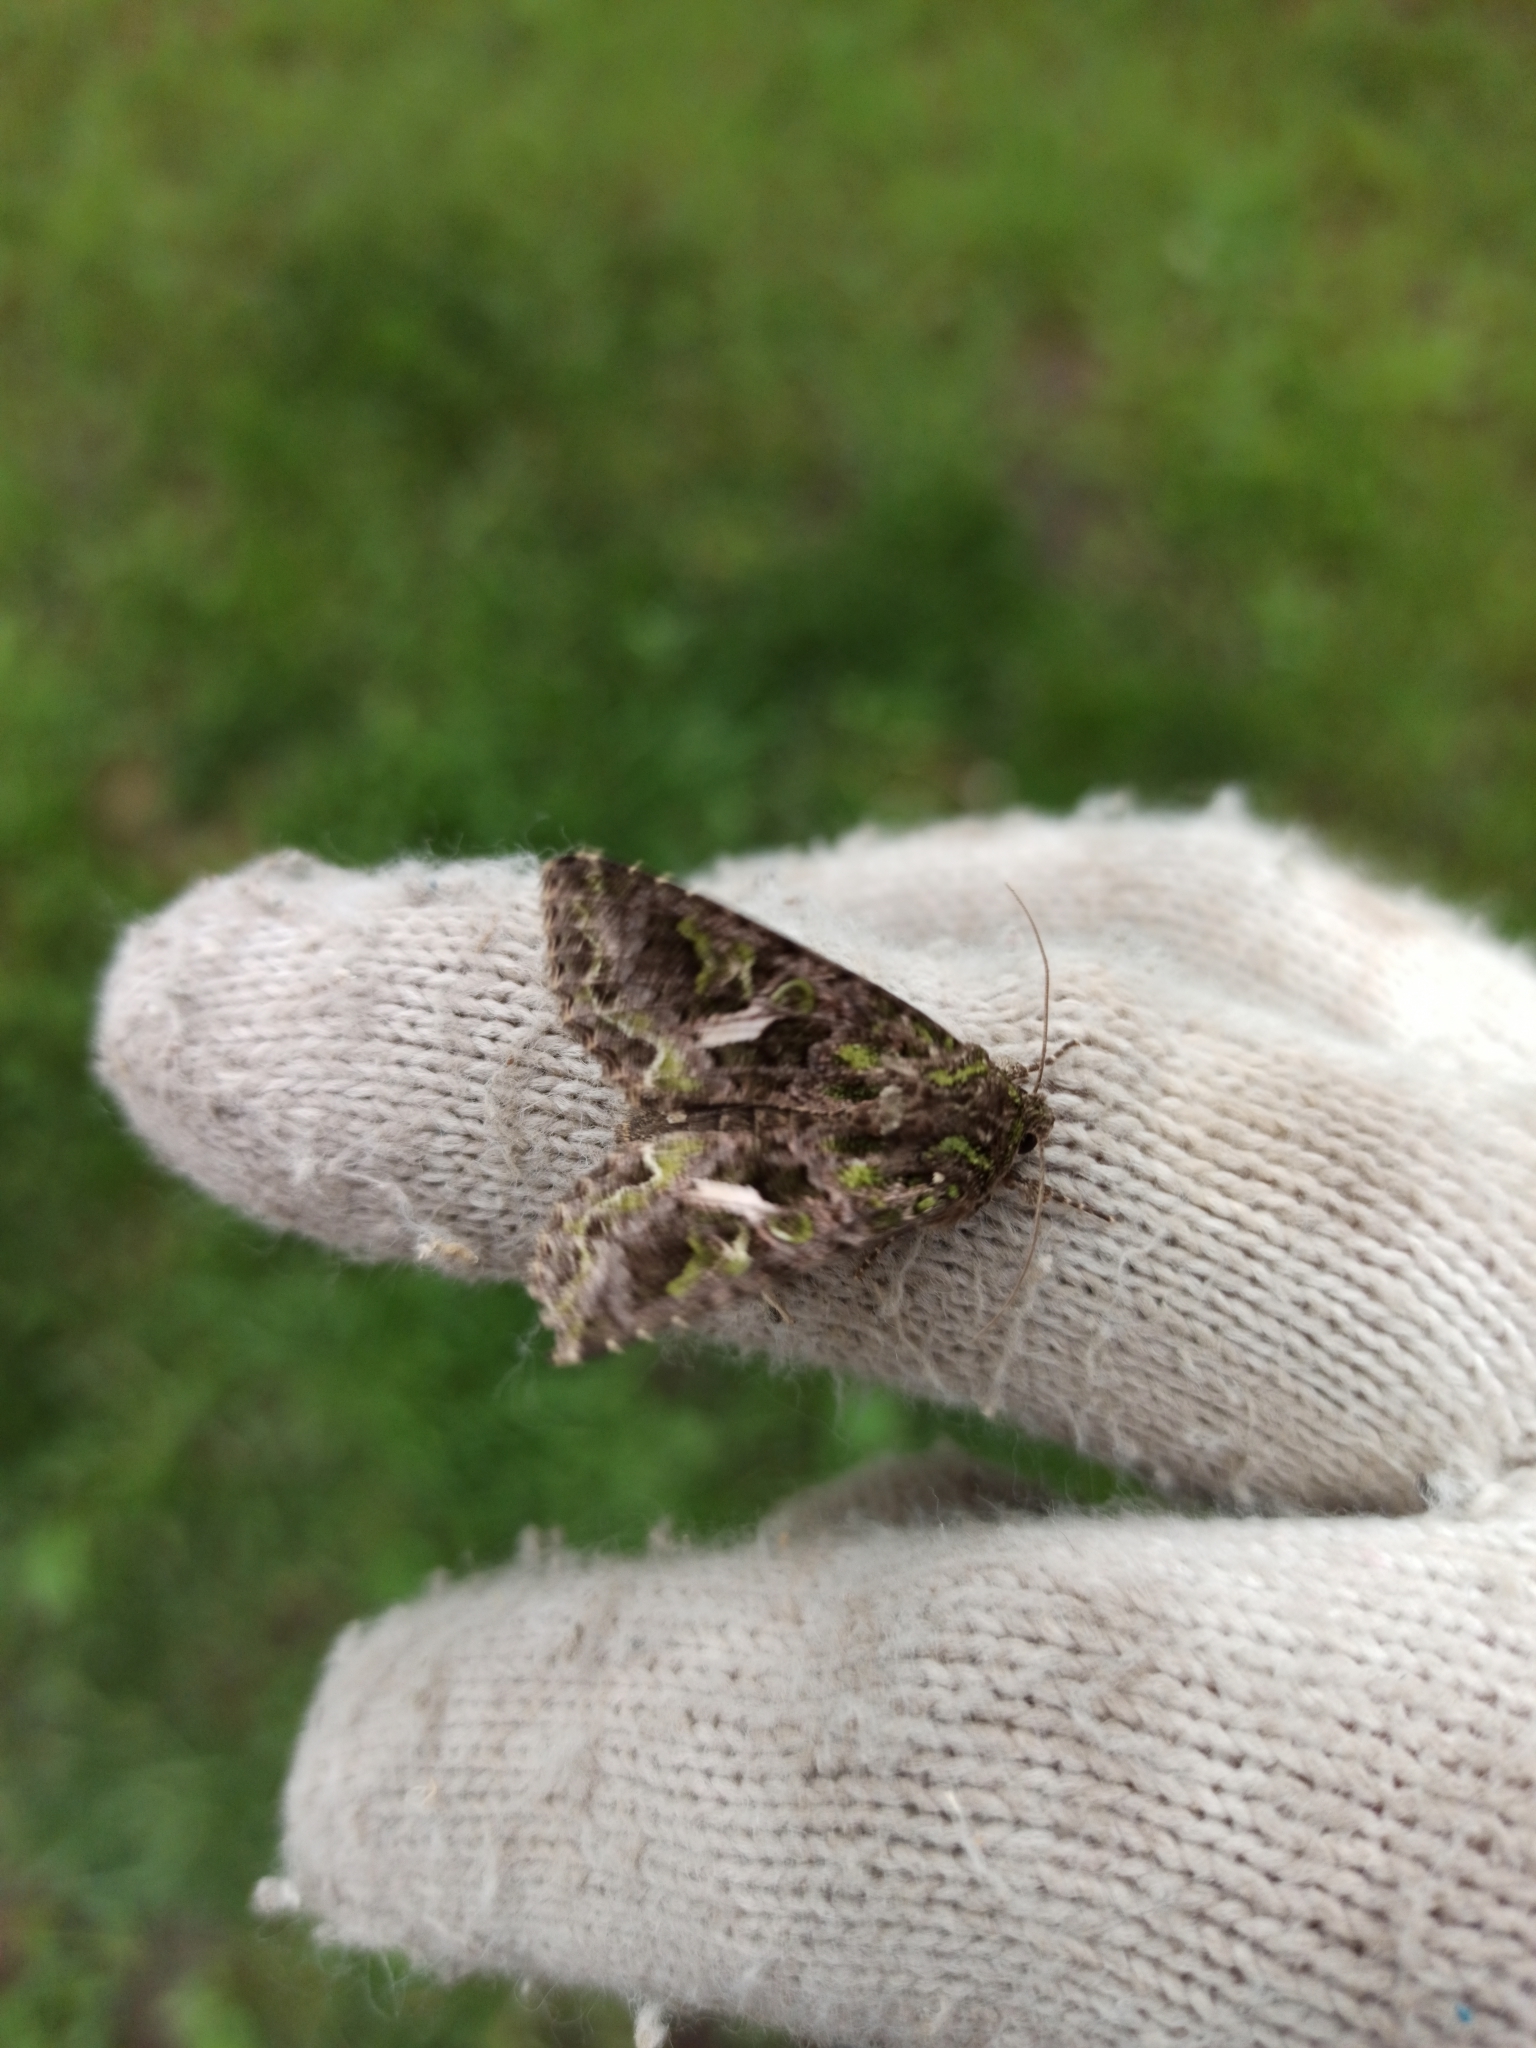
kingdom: Animalia
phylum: Arthropoda
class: Insecta
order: Lepidoptera
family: Noctuidae
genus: Trachea
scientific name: Trachea atriplicis
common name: Orache moth
